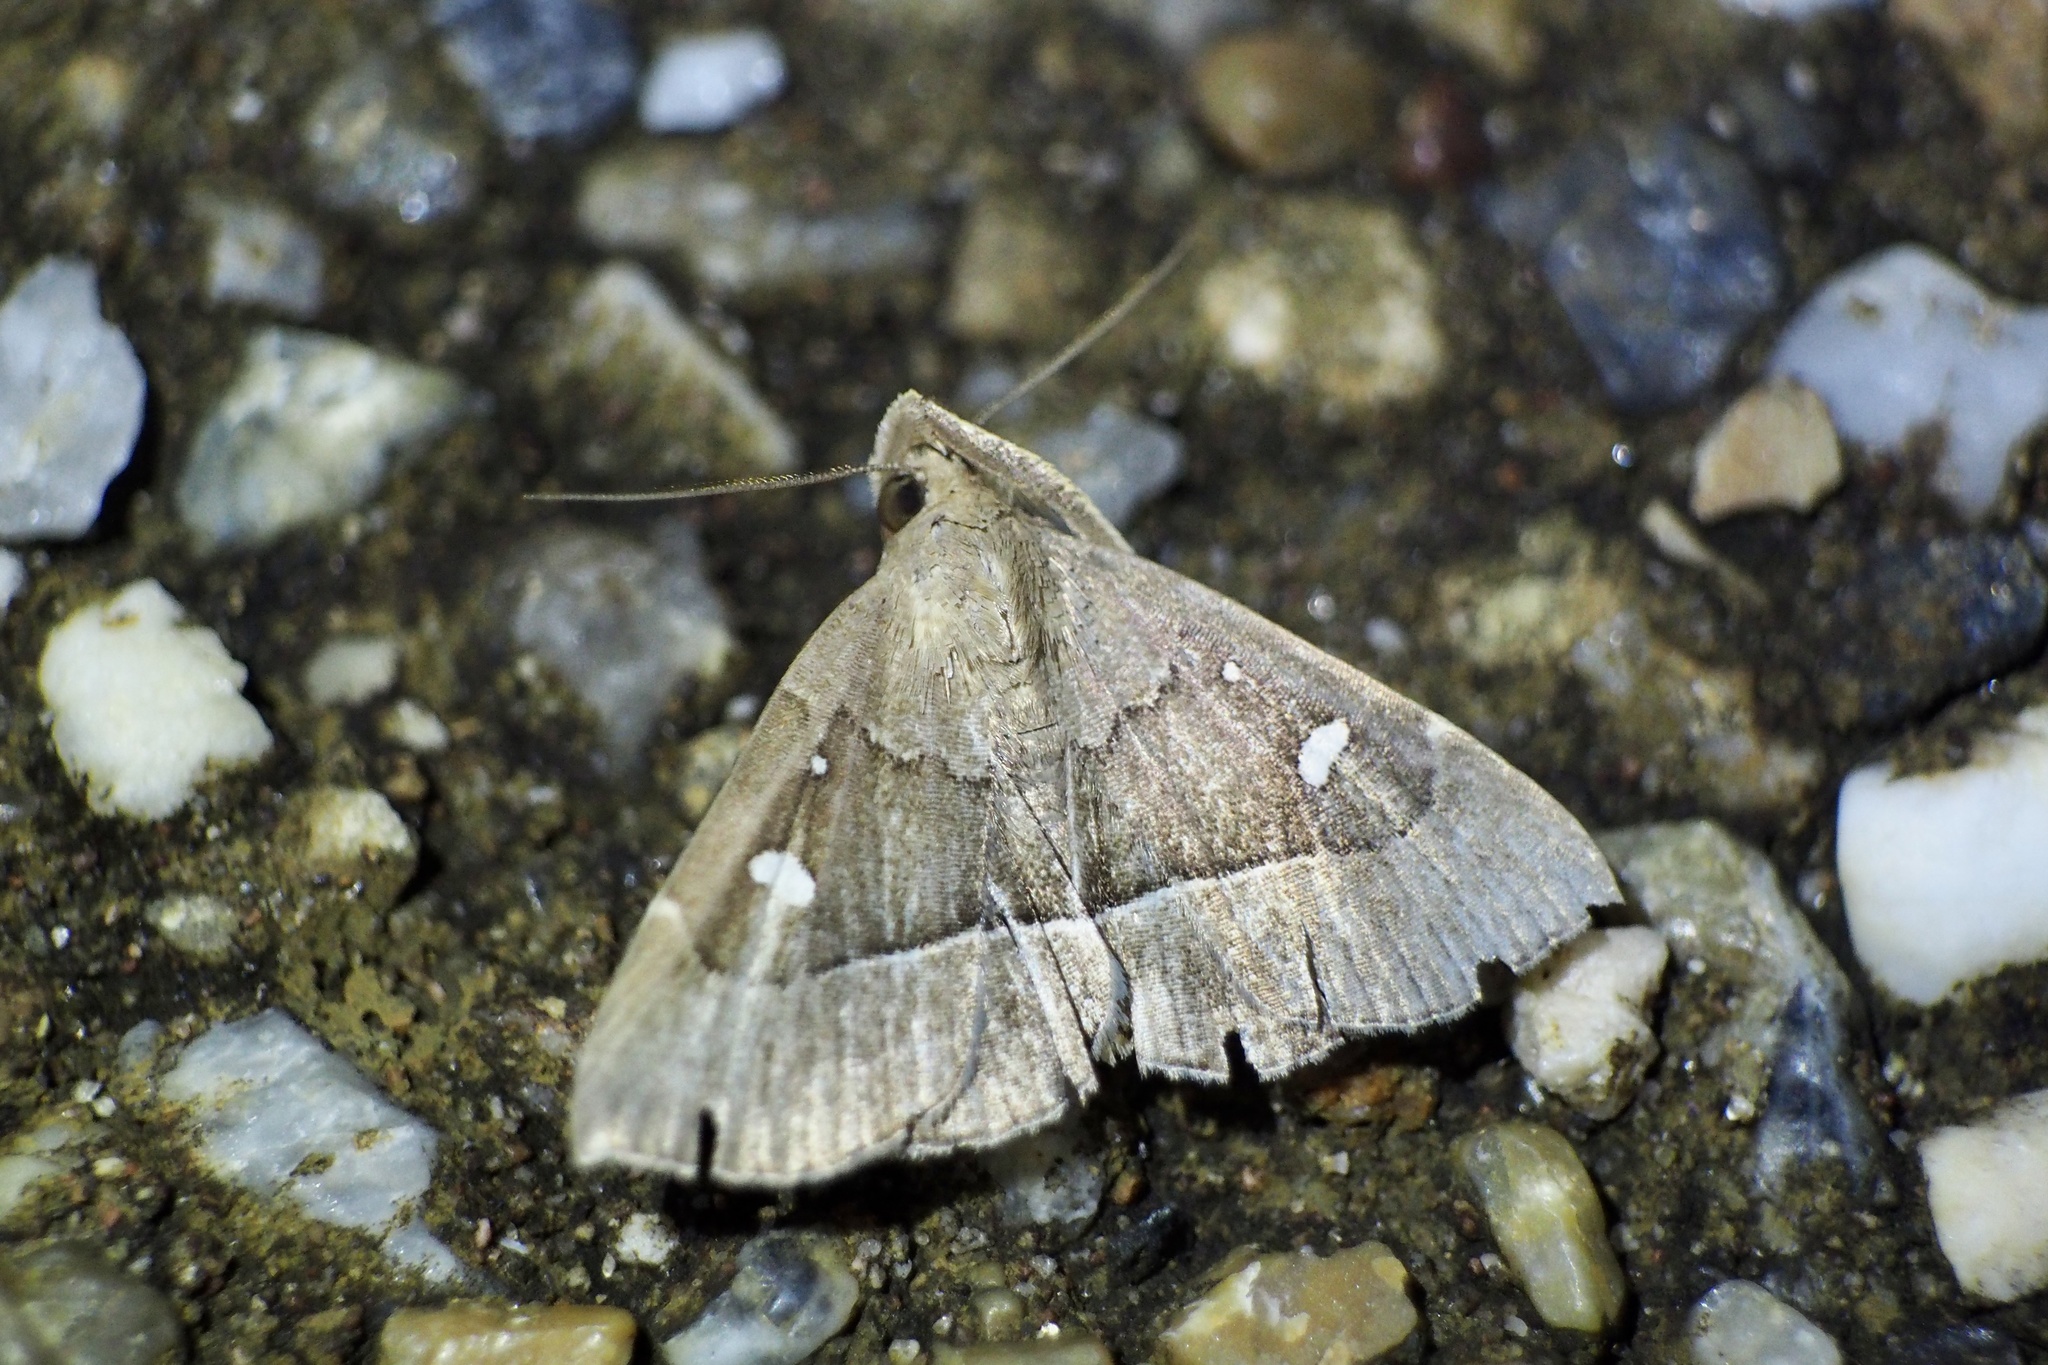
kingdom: Animalia
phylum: Arthropoda
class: Insecta
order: Lepidoptera
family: Erebidae
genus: Cidariplura
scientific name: Cidariplura gladiata
